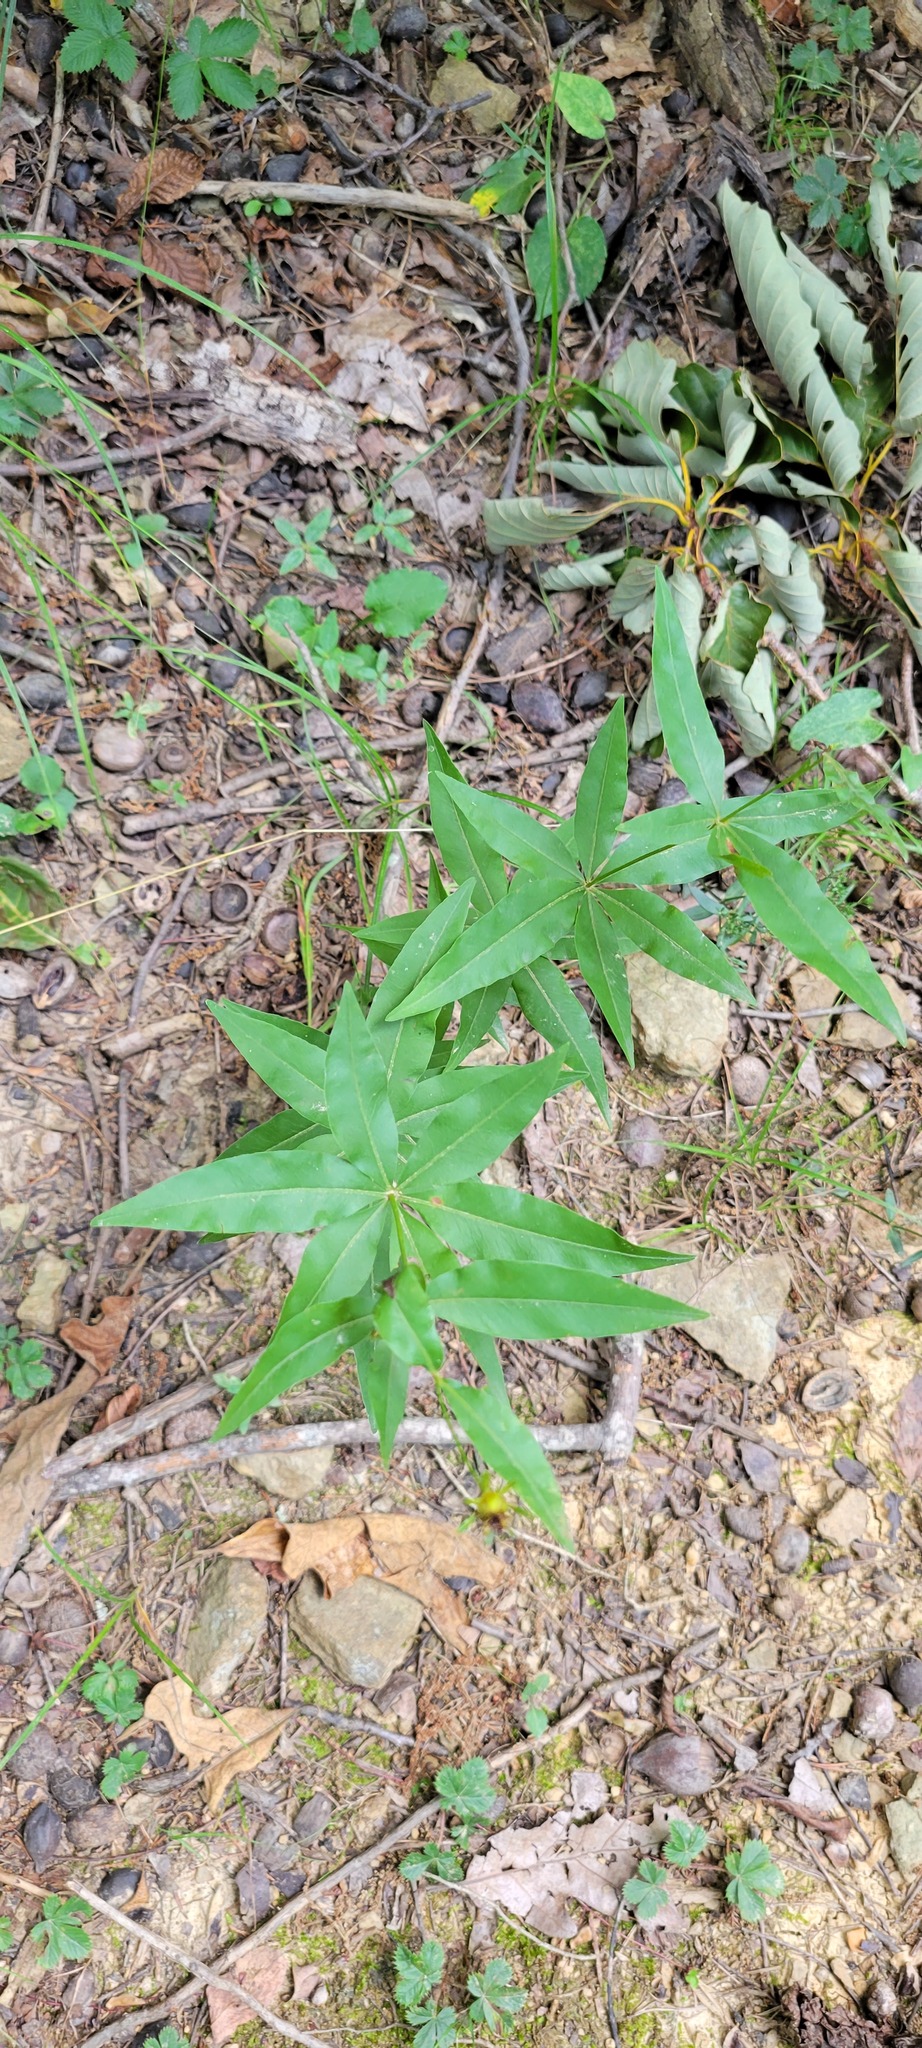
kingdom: Plantae
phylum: Tracheophyta
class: Magnoliopsida
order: Asterales
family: Asteraceae
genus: Coreopsis
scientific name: Coreopsis major
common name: Forest tickseed
